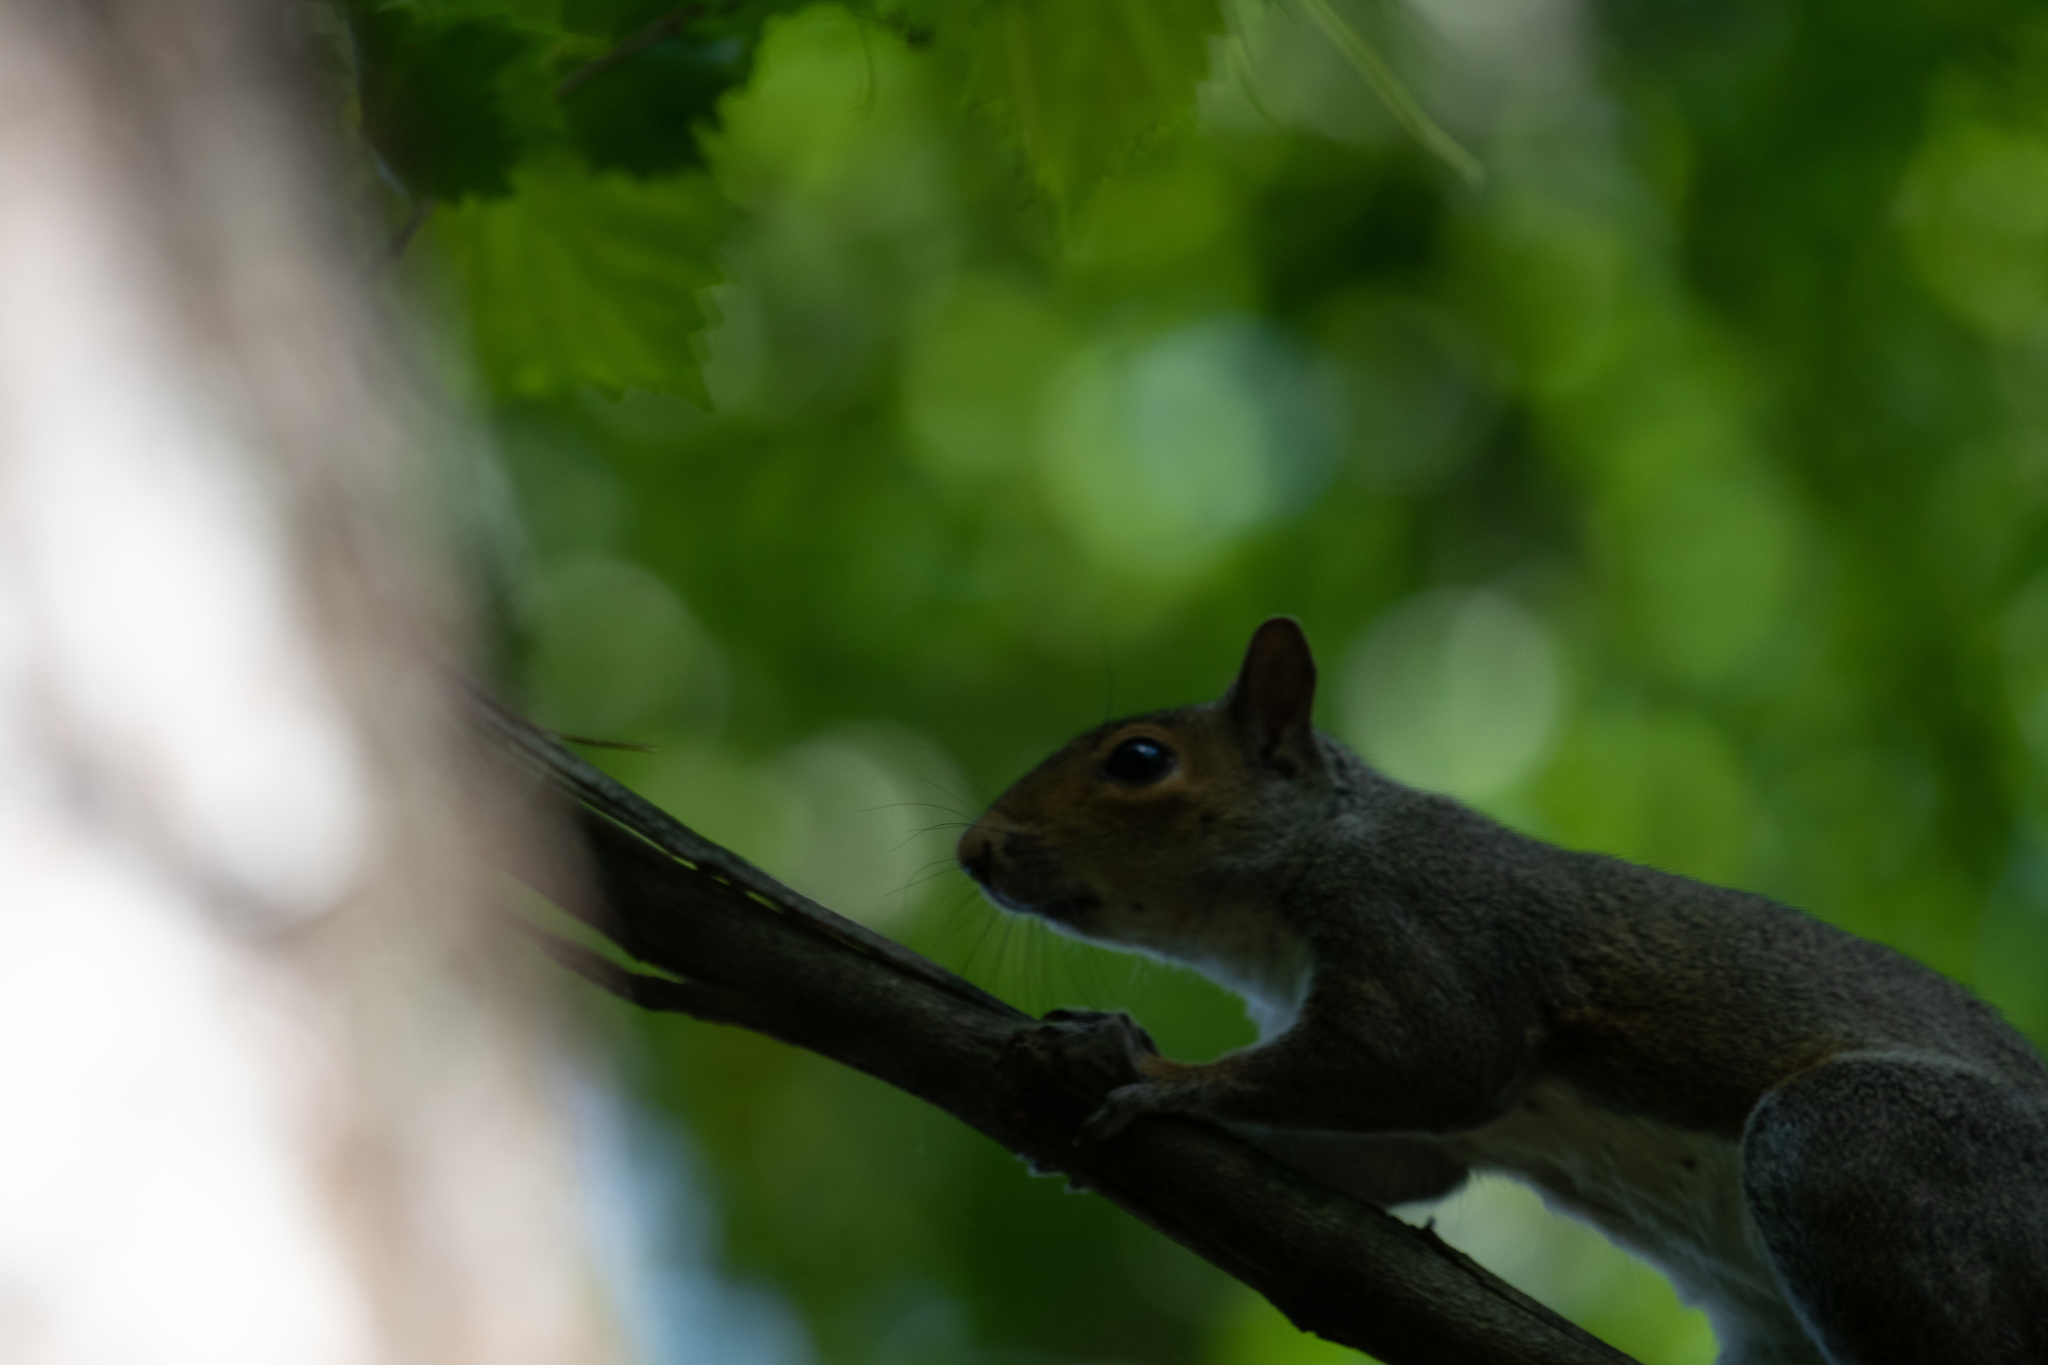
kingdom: Animalia
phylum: Chordata
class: Mammalia
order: Rodentia
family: Sciuridae
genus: Sciurus
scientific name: Sciurus carolinensis
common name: Eastern gray squirrel
